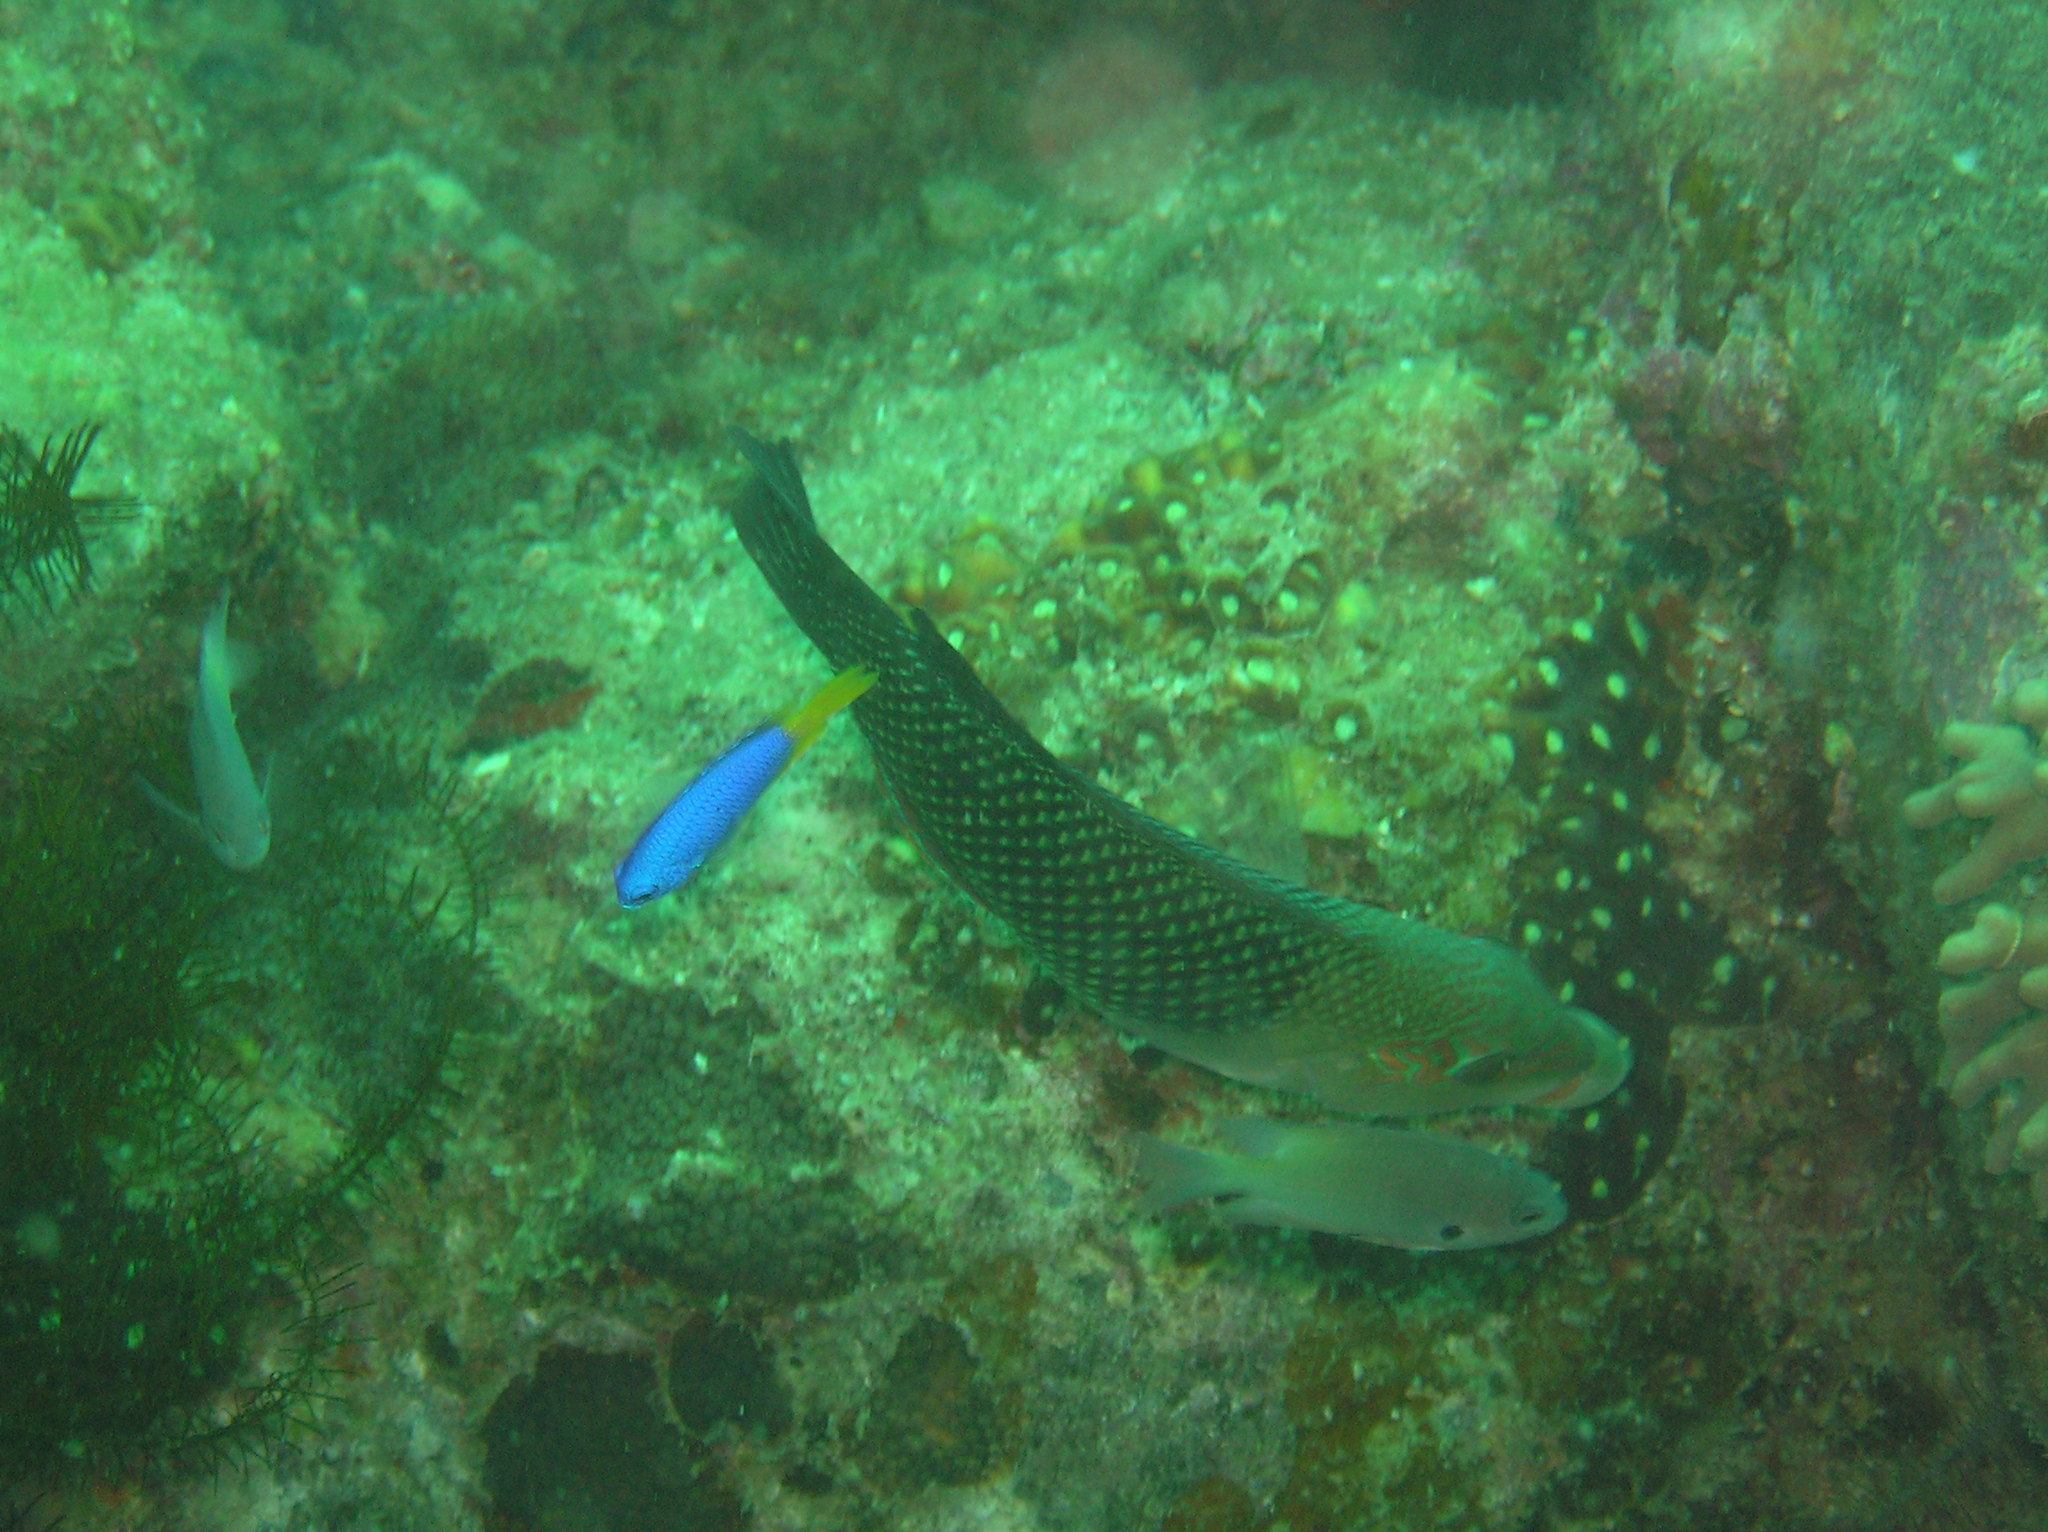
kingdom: Animalia
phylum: Chordata
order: Perciformes
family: Labridae
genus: Hemigymnus
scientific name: Hemigymnus melapterus
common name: Blackeye thicklip
